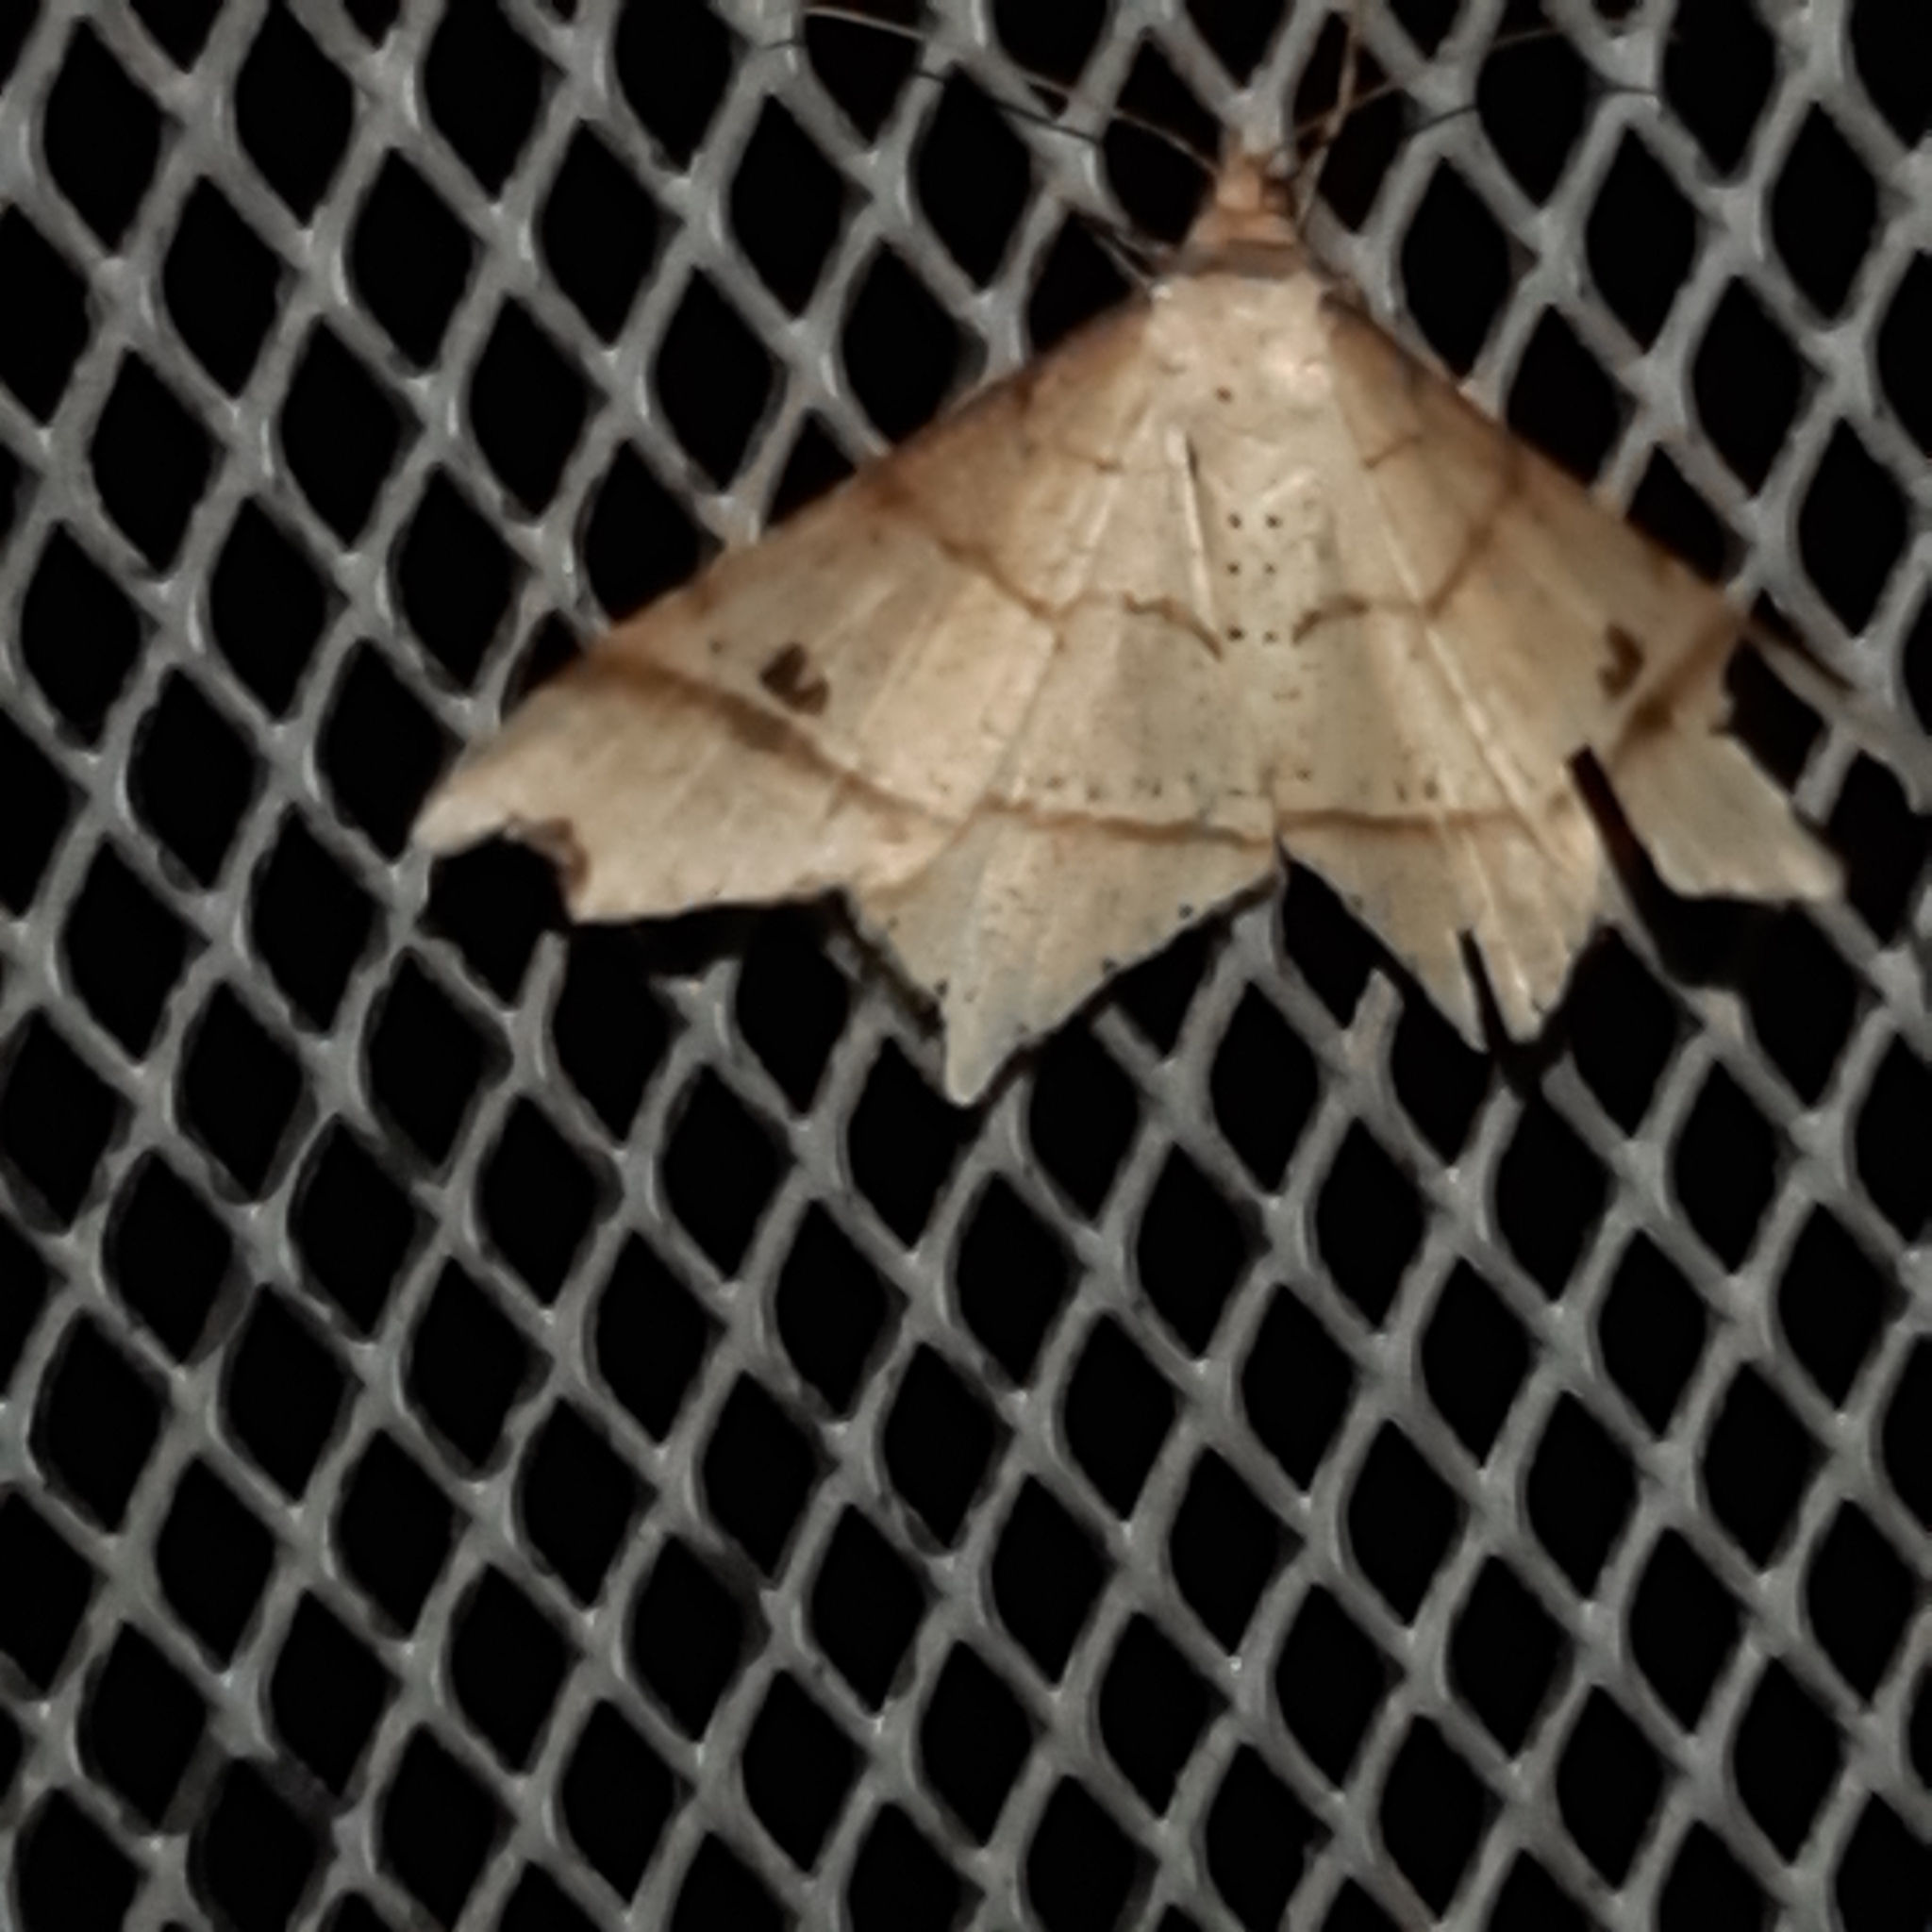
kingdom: Animalia
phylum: Arthropoda
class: Insecta
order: Lepidoptera
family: Geometridae
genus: Macaria
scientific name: Macaria triplicaria
